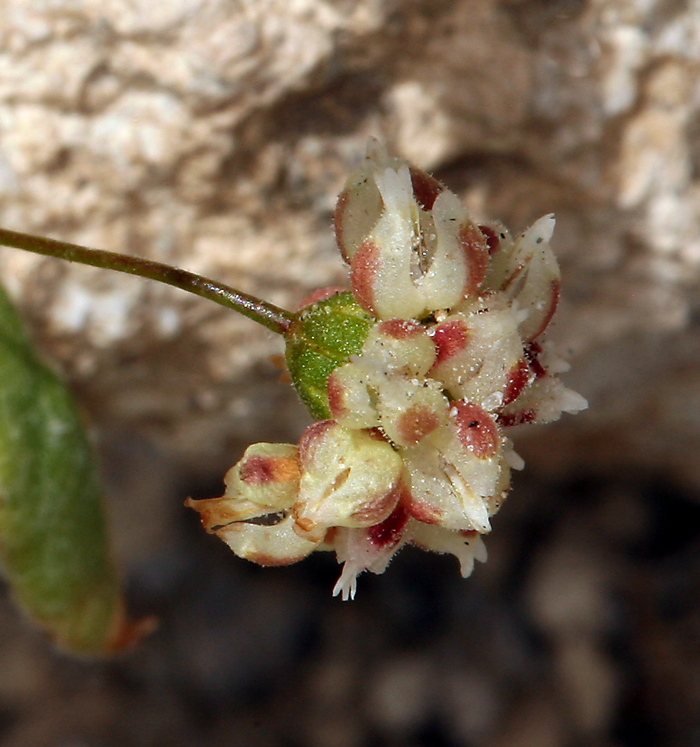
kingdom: Plantae
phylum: Tracheophyta
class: Magnoliopsida
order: Caryophyllales
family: Polygonaceae
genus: Eriogonum
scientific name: Eriogonum maculatum
